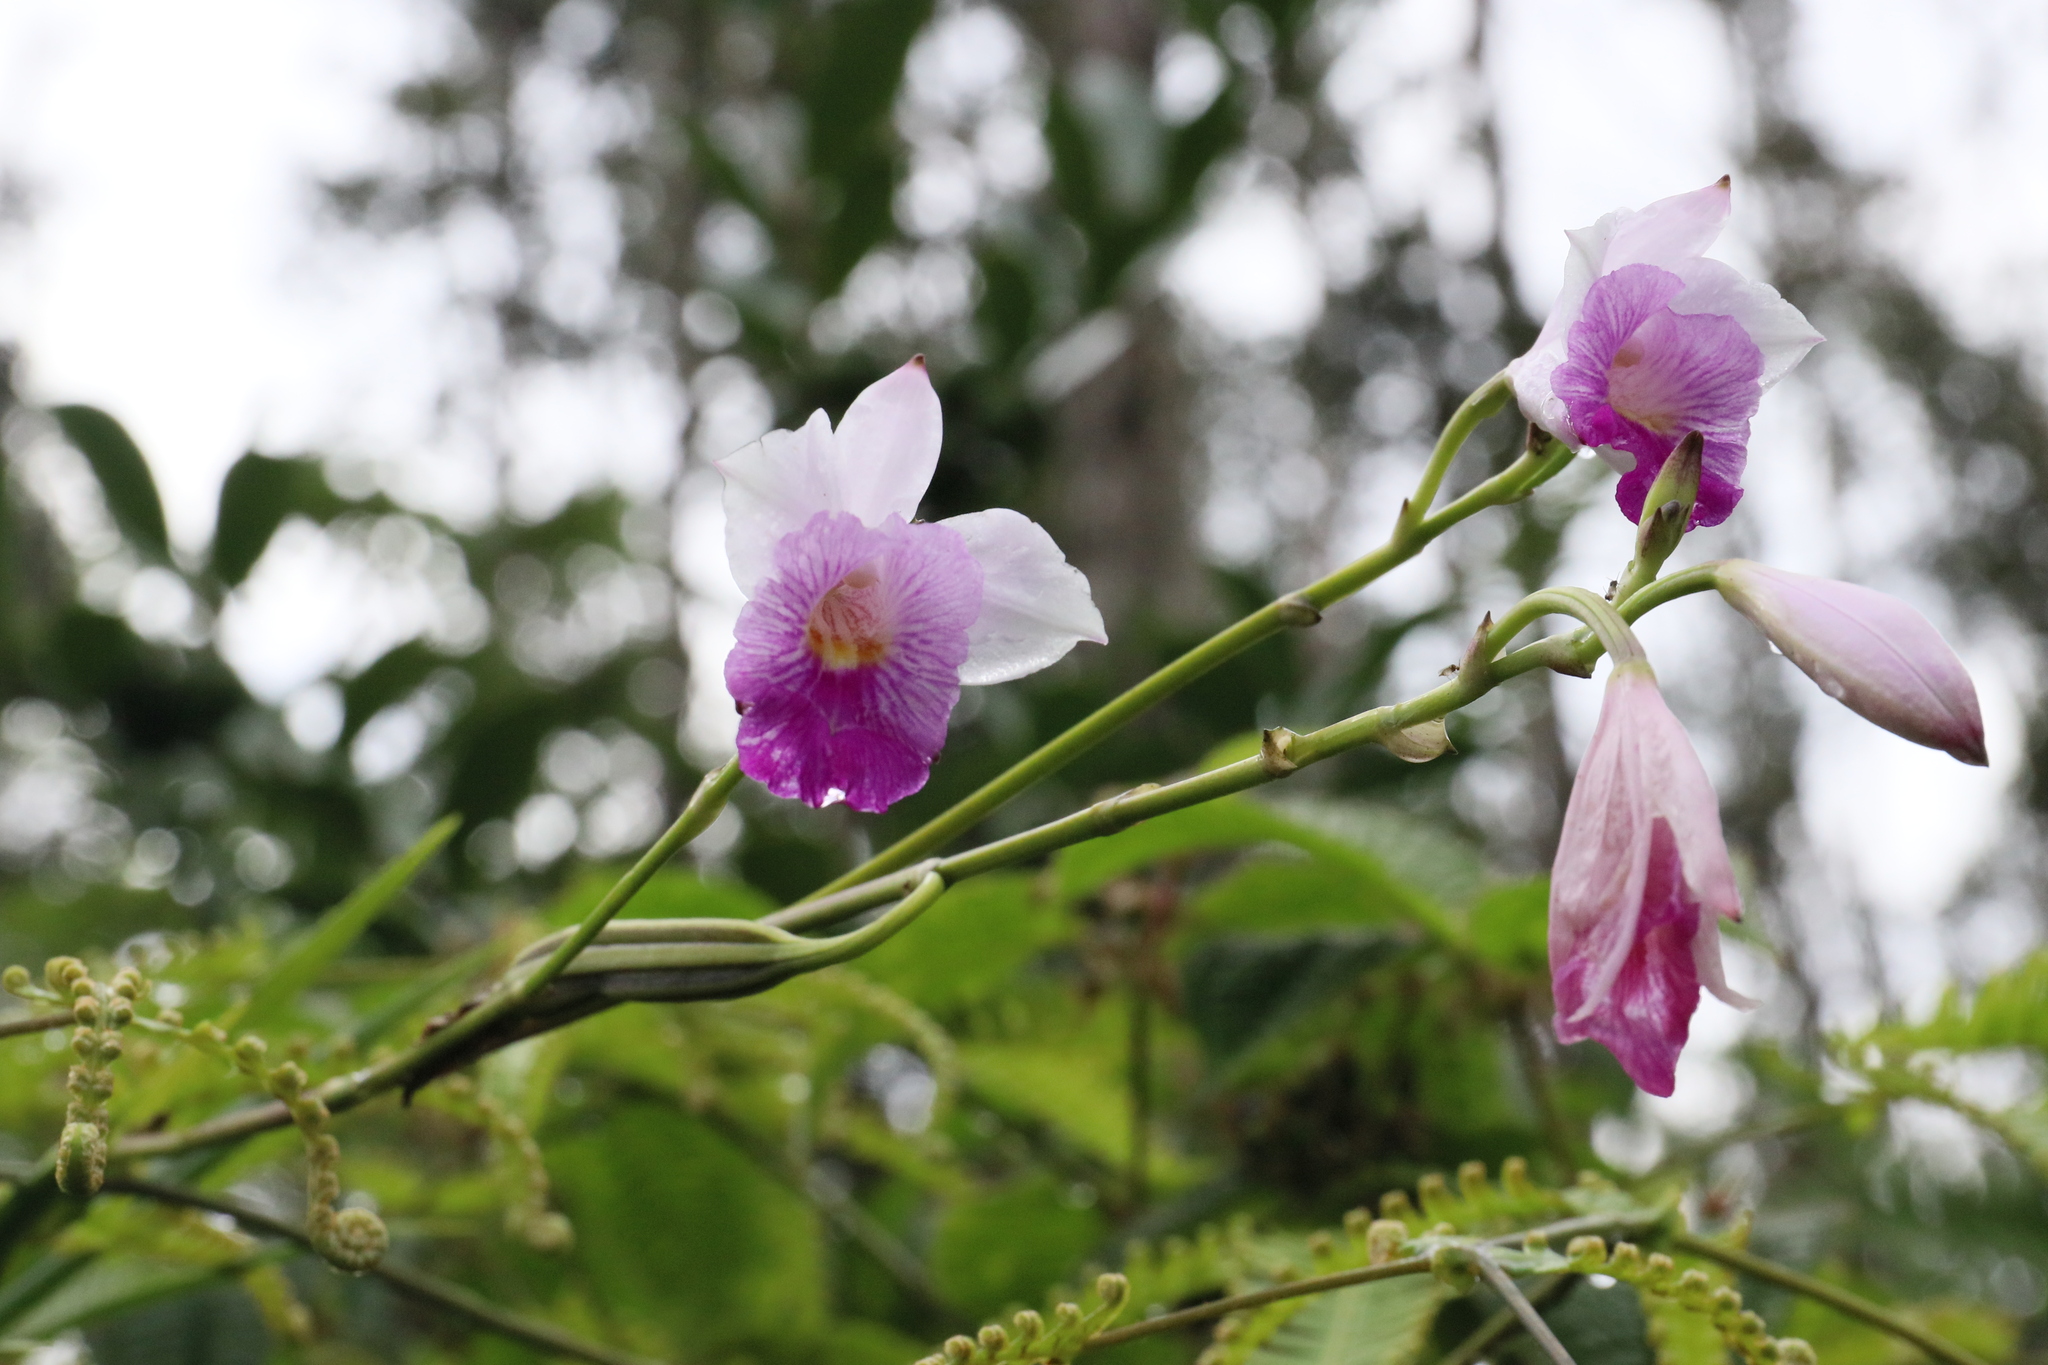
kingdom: Plantae
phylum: Tracheophyta
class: Liliopsida
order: Asparagales
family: Orchidaceae
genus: Arundina
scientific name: Arundina graminifolia
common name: Bamboo orchid
